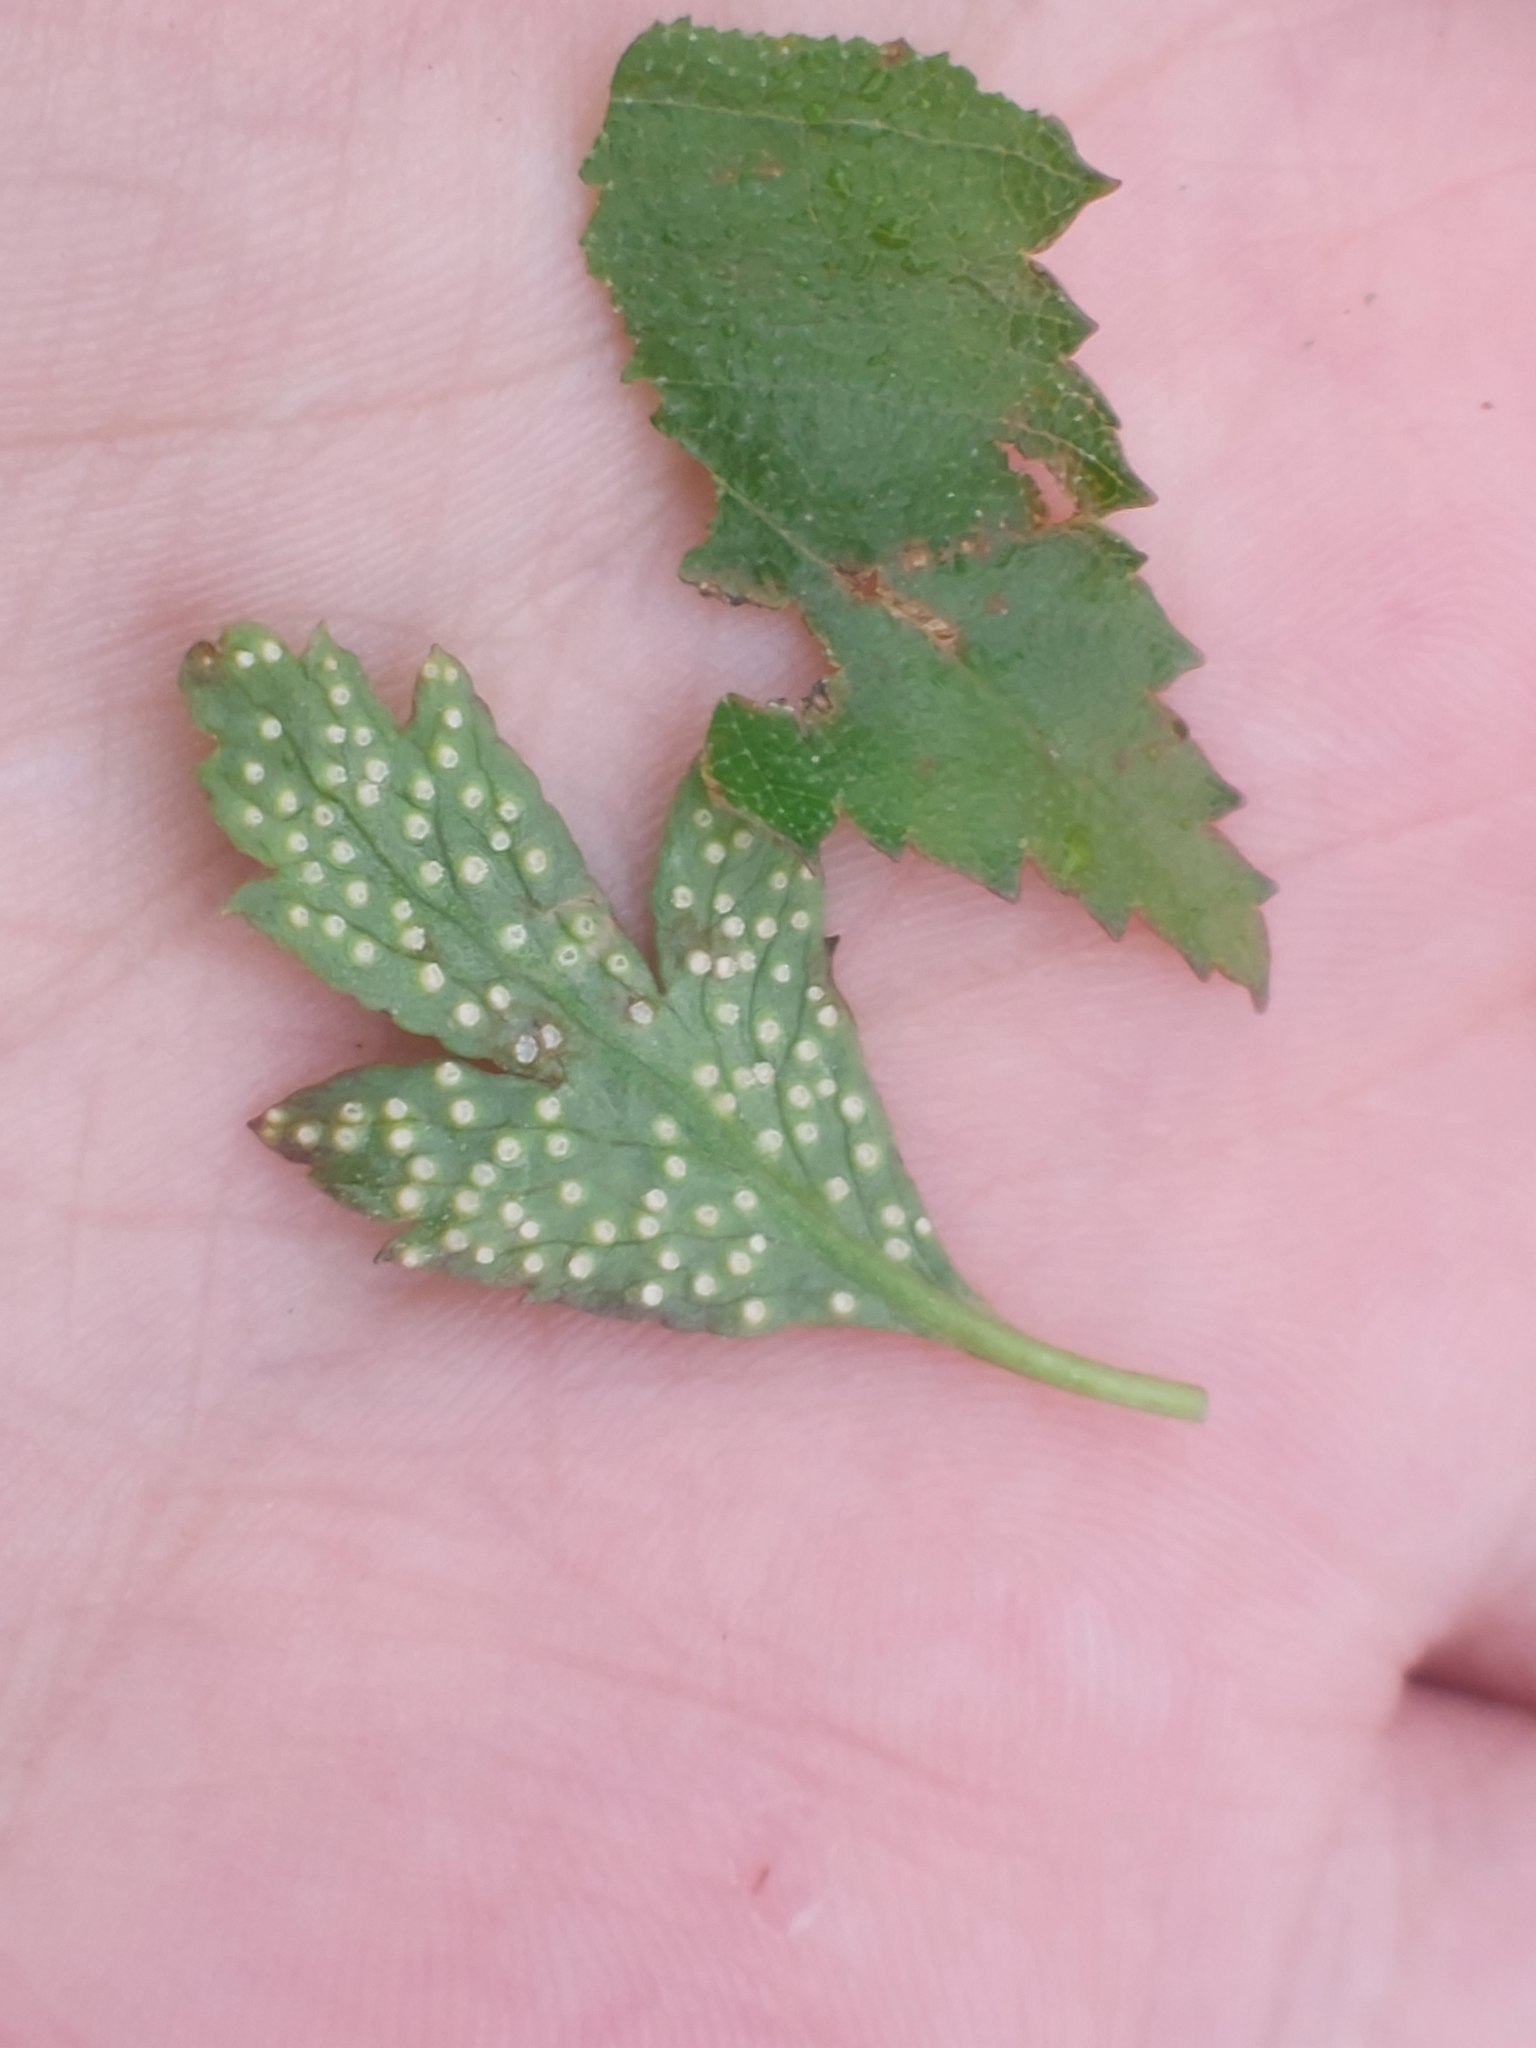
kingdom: Fungi
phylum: Basidiomycota
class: Pucciniomycetes
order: Pucciniales
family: Ochropsoraceae
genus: Ochropsora
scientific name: Ochropsora ariae
